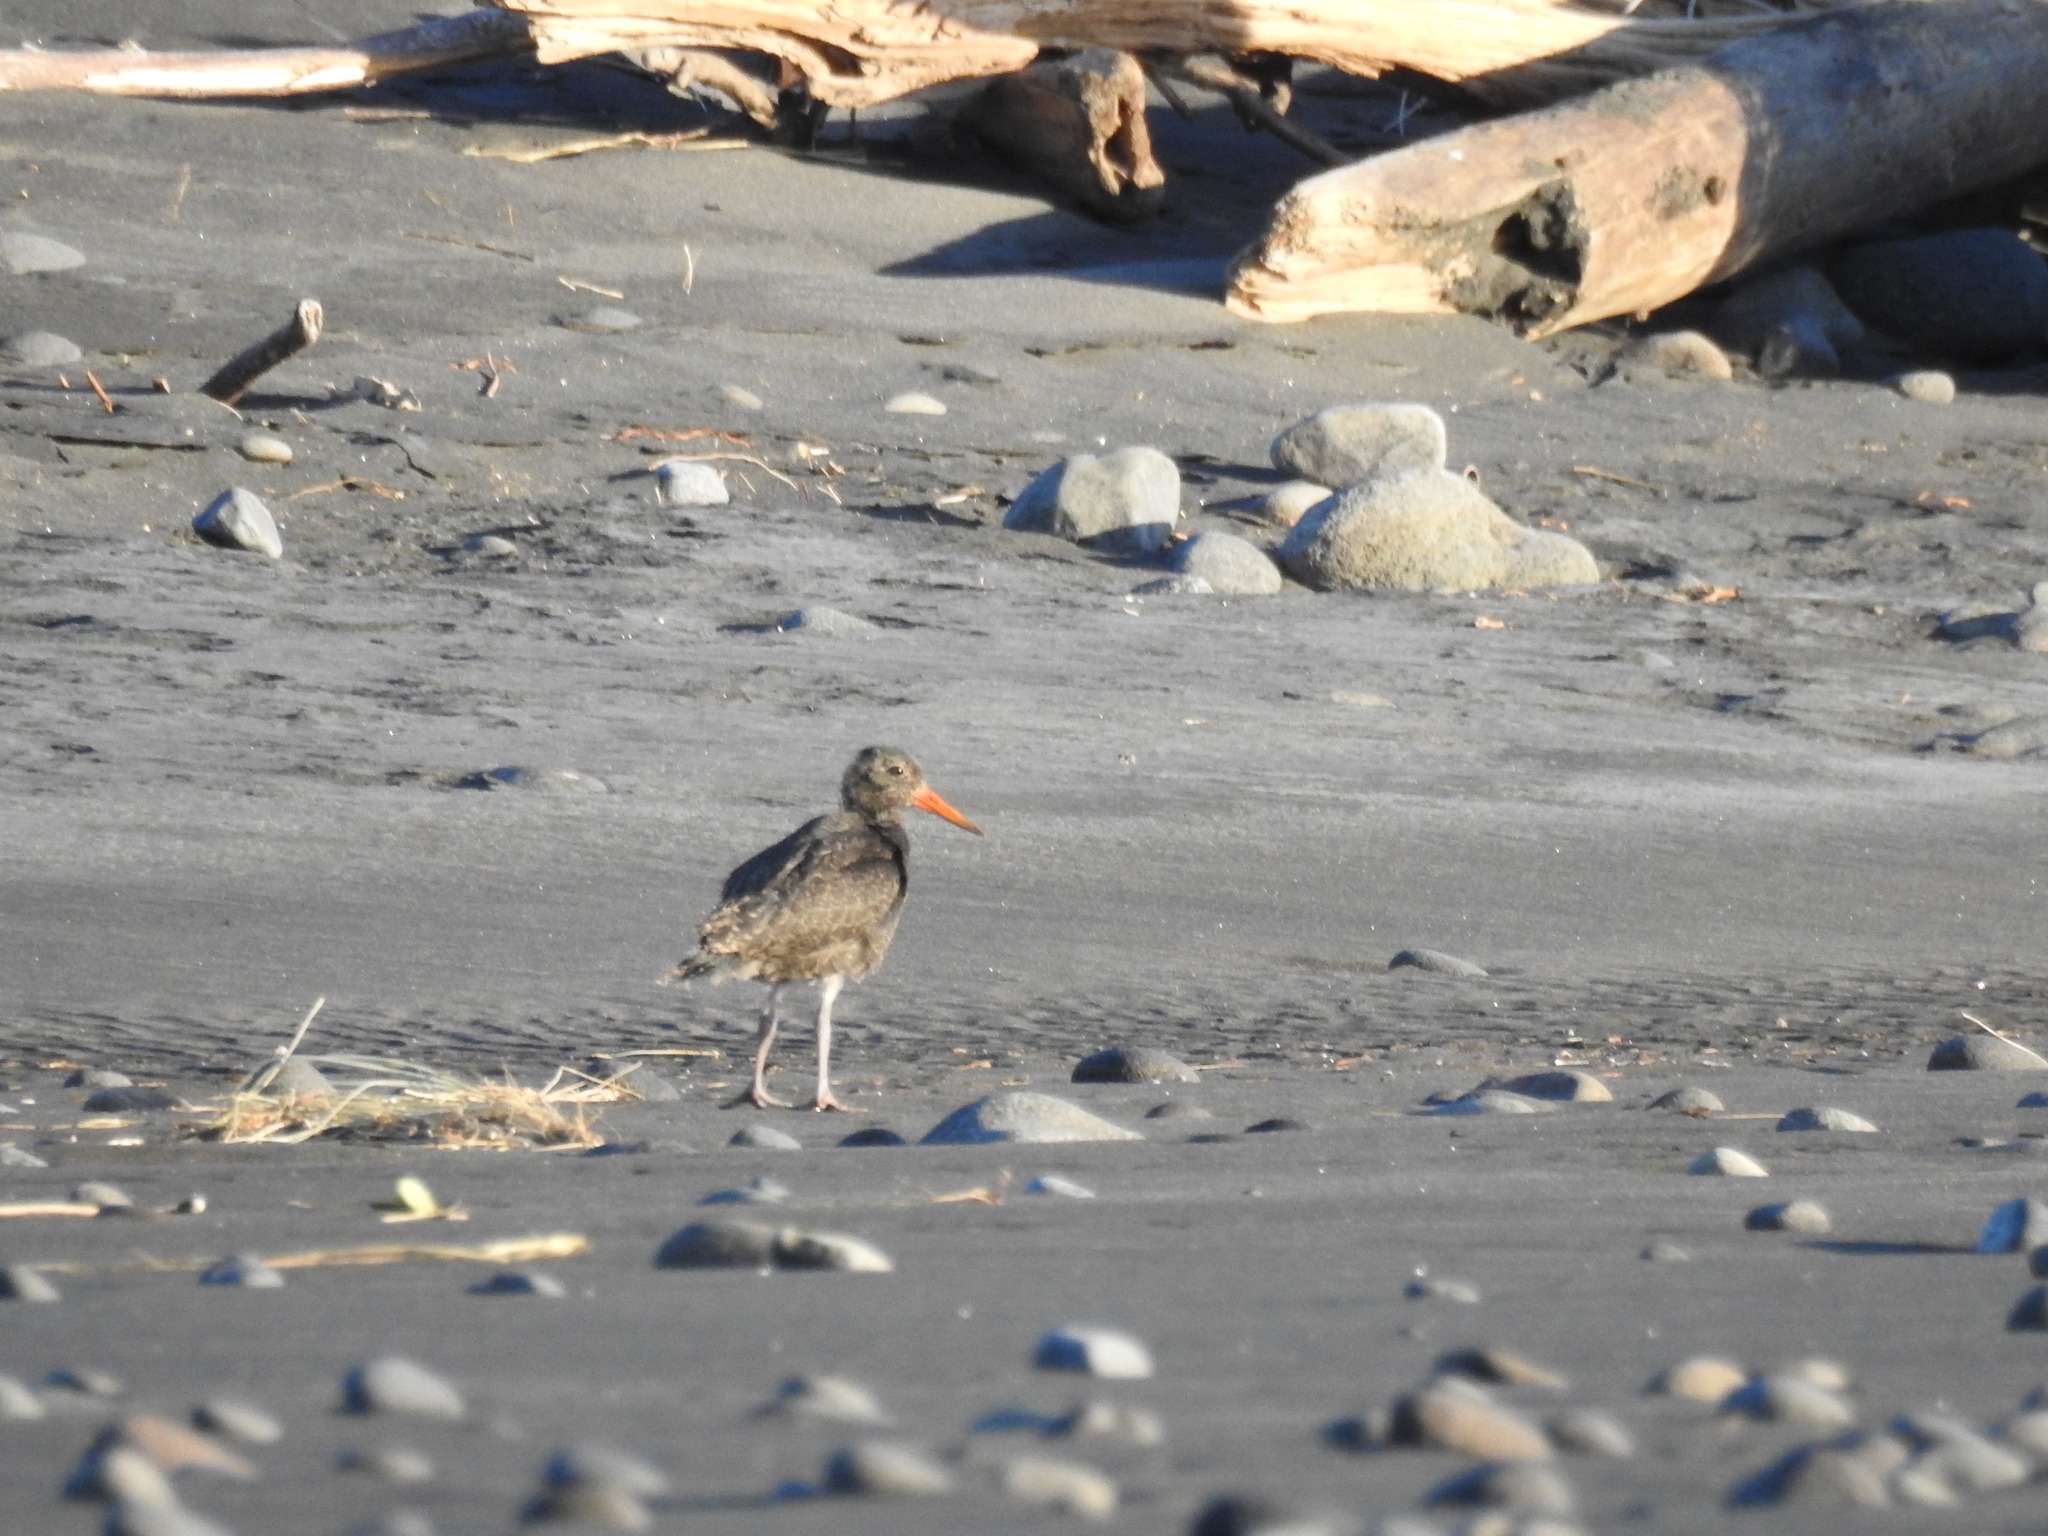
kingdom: Animalia
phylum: Chordata
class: Aves
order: Charadriiformes
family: Haematopodidae
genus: Haematopus
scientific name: Haematopus unicolor
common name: Variable oystercatcher
